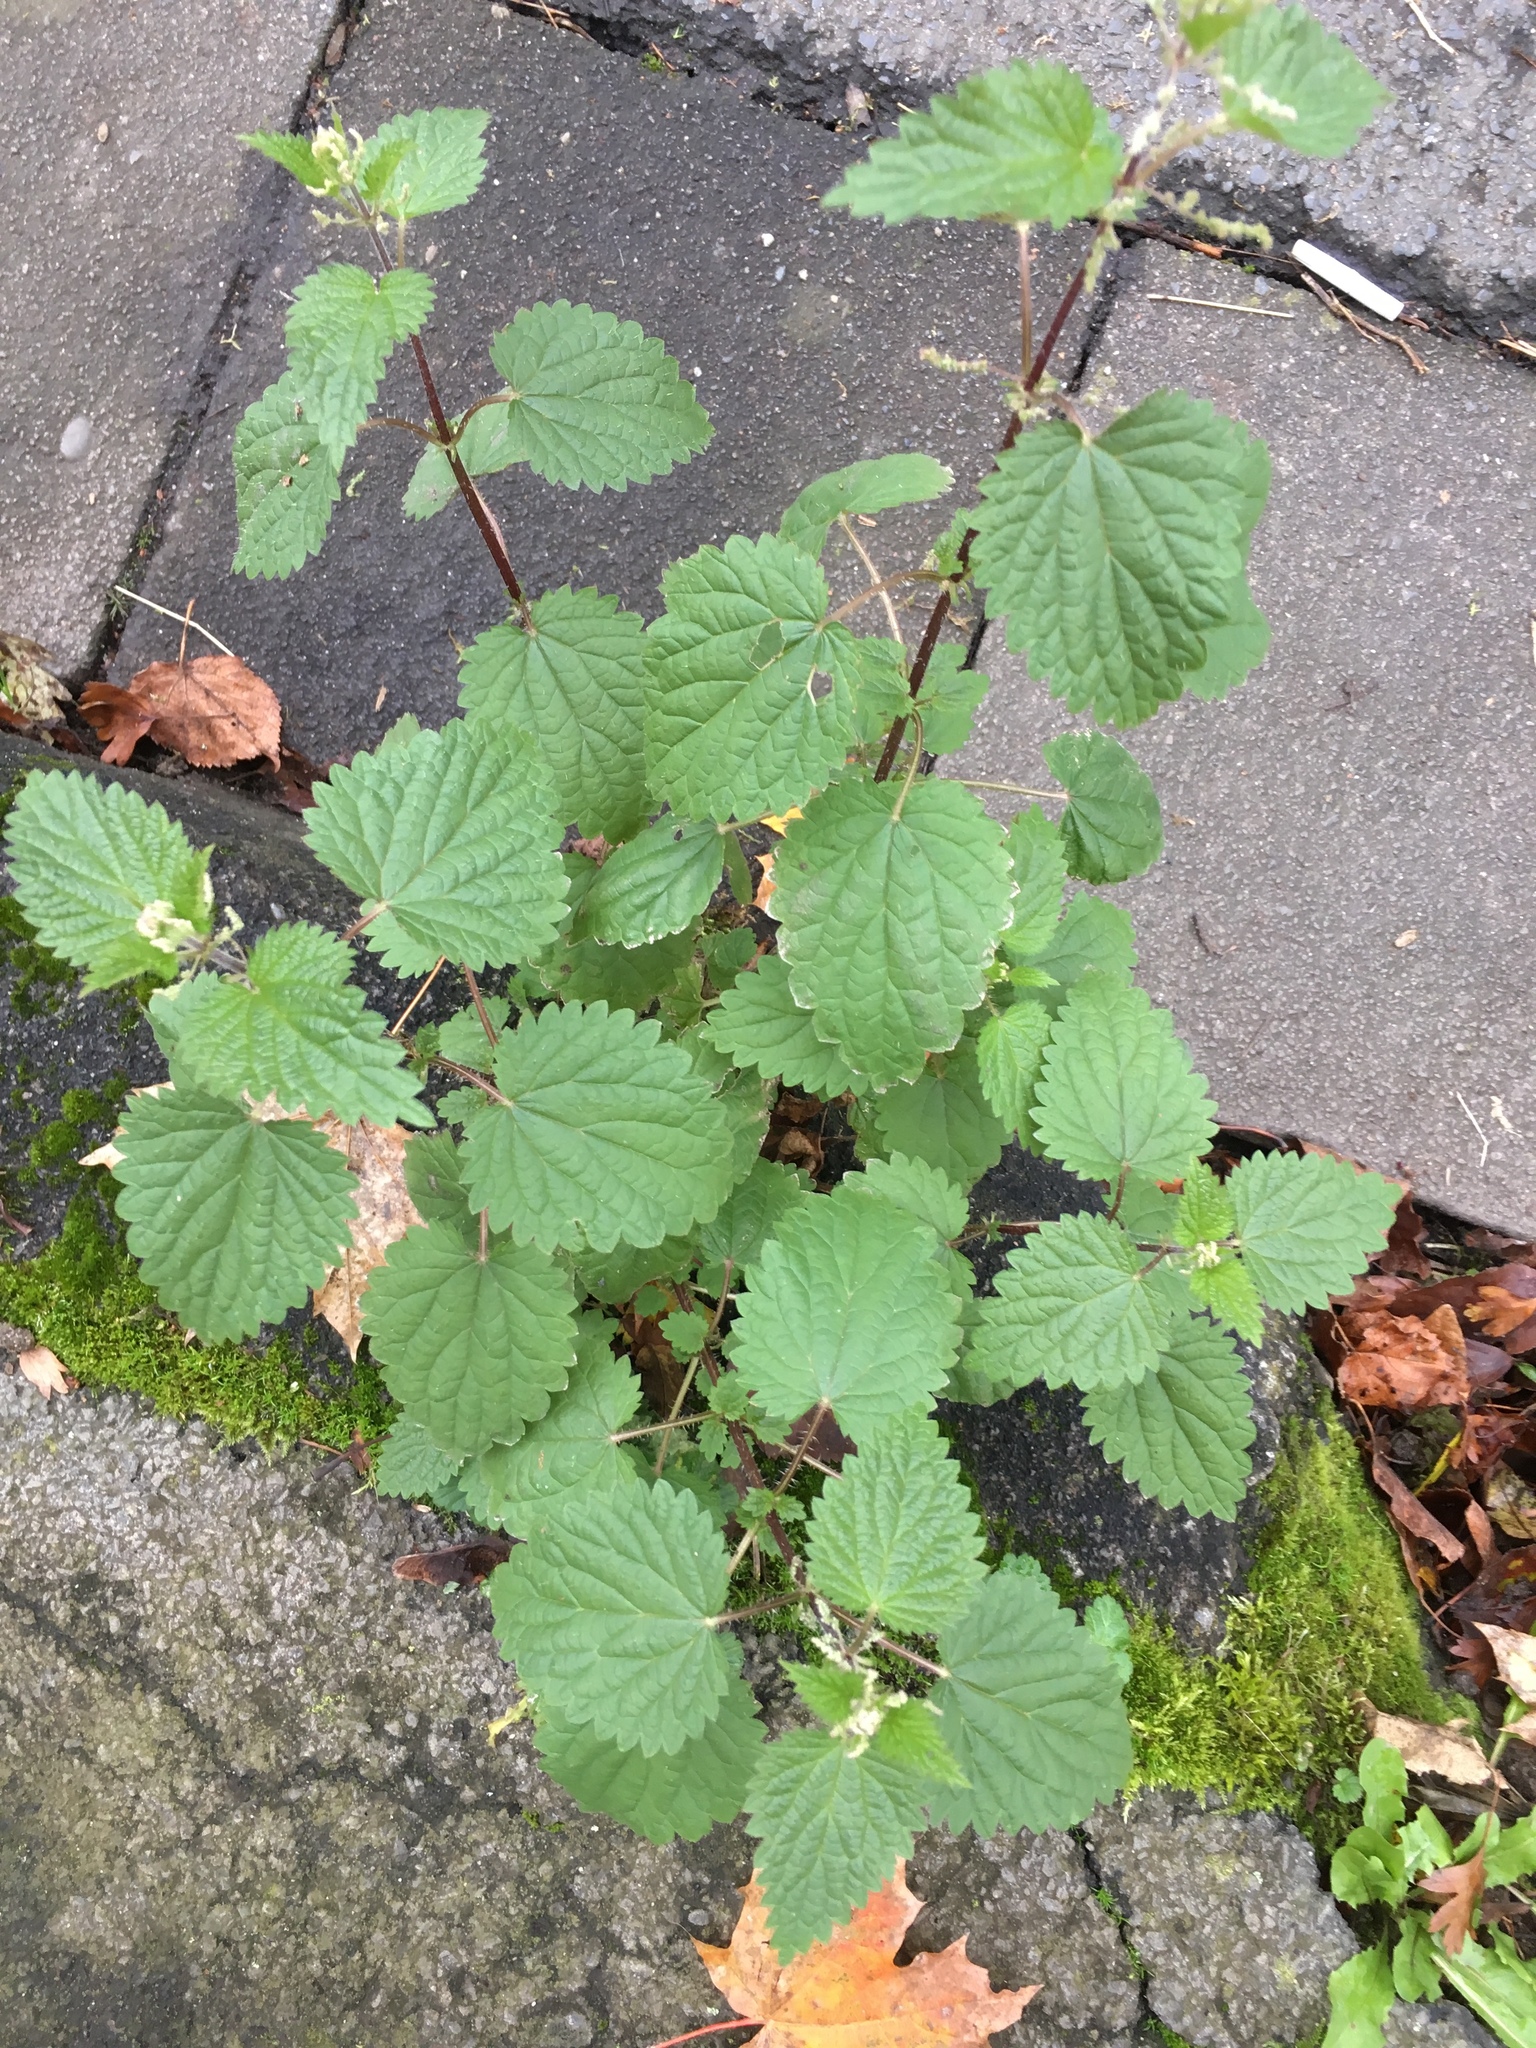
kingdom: Plantae
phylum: Tracheophyta
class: Magnoliopsida
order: Rosales
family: Urticaceae
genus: Urtica
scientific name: Urtica dioica
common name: Common nettle
